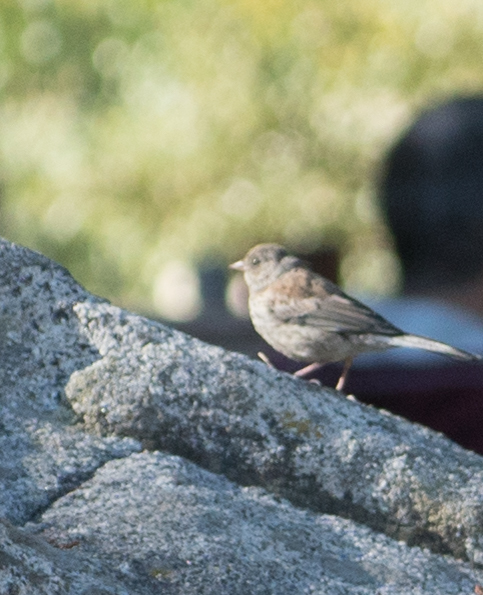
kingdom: Animalia
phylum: Chordata
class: Aves
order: Passeriformes
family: Passerellidae
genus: Junco
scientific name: Junco hyemalis
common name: Dark-eyed junco
